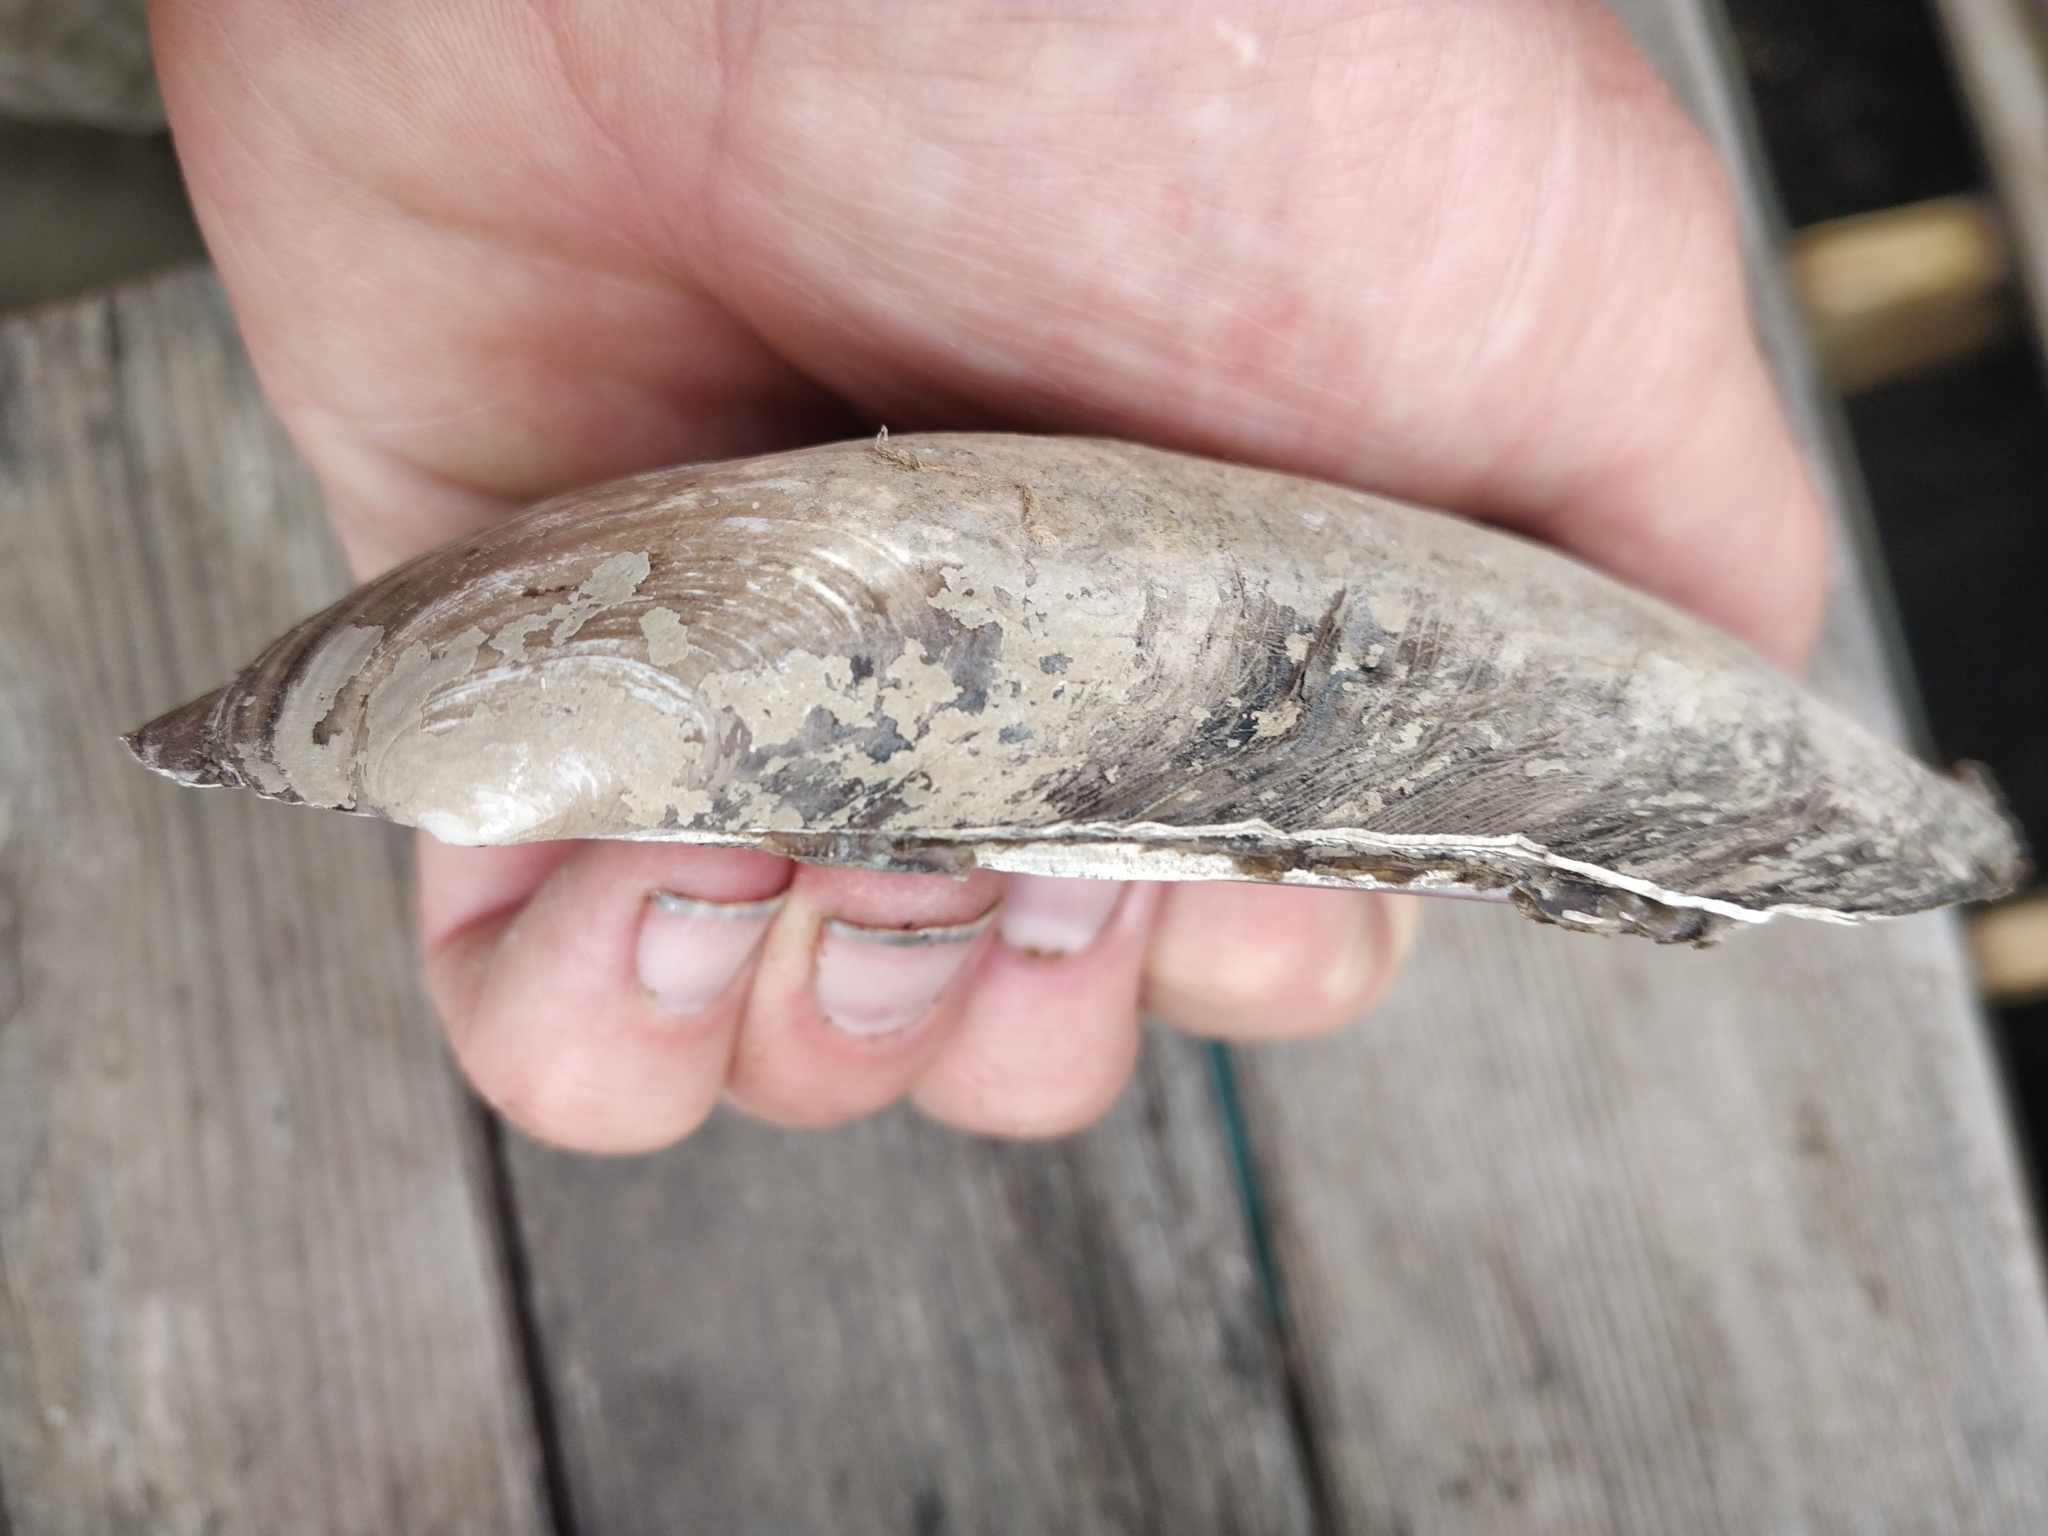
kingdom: Animalia
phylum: Mollusca
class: Bivalvia
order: Unionida
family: Unionidae
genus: Potamilus
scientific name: Potamilus fragilis
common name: Fragile papershell
